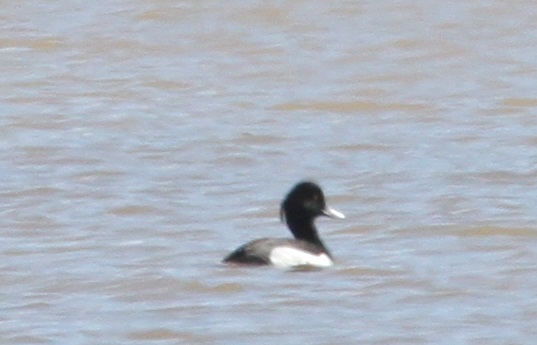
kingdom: Animalia
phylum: Chordata
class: Aves
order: Anseriformes
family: Anatidae
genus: Aythya
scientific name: Aythya fuligula
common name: Tufted duck
